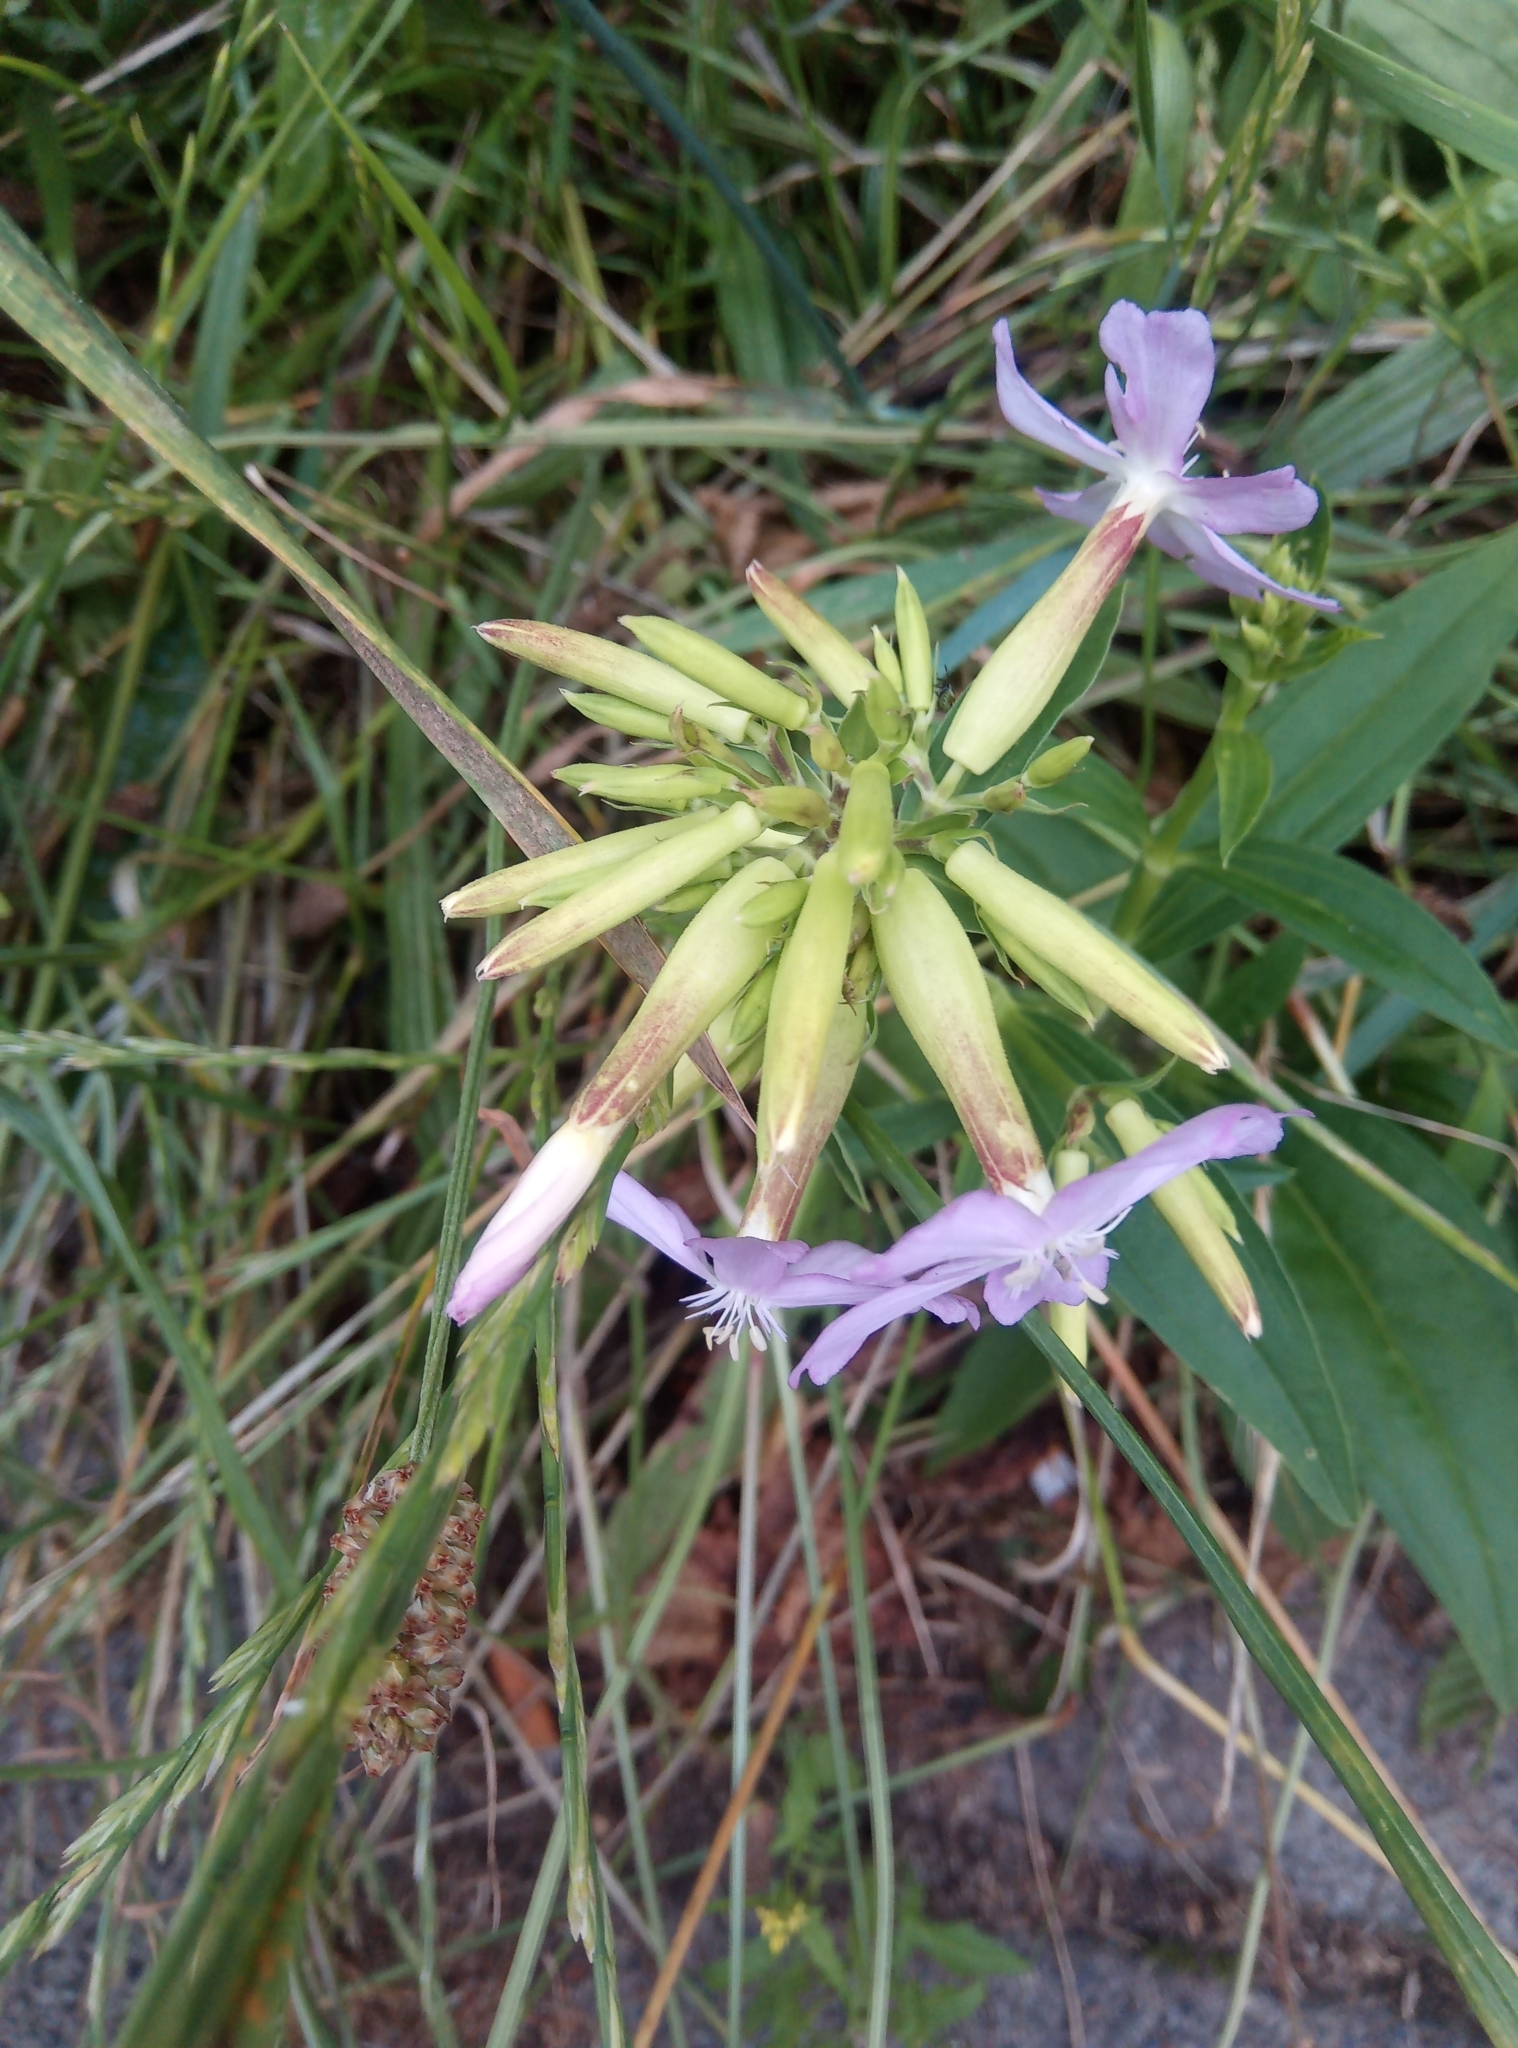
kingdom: Plantae
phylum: Tracheophyta
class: Magnoliopsida
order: Caryophyllales
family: Caryophyllaceae
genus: Saponaria
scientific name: Saponaria officinalis
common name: Soapwort
